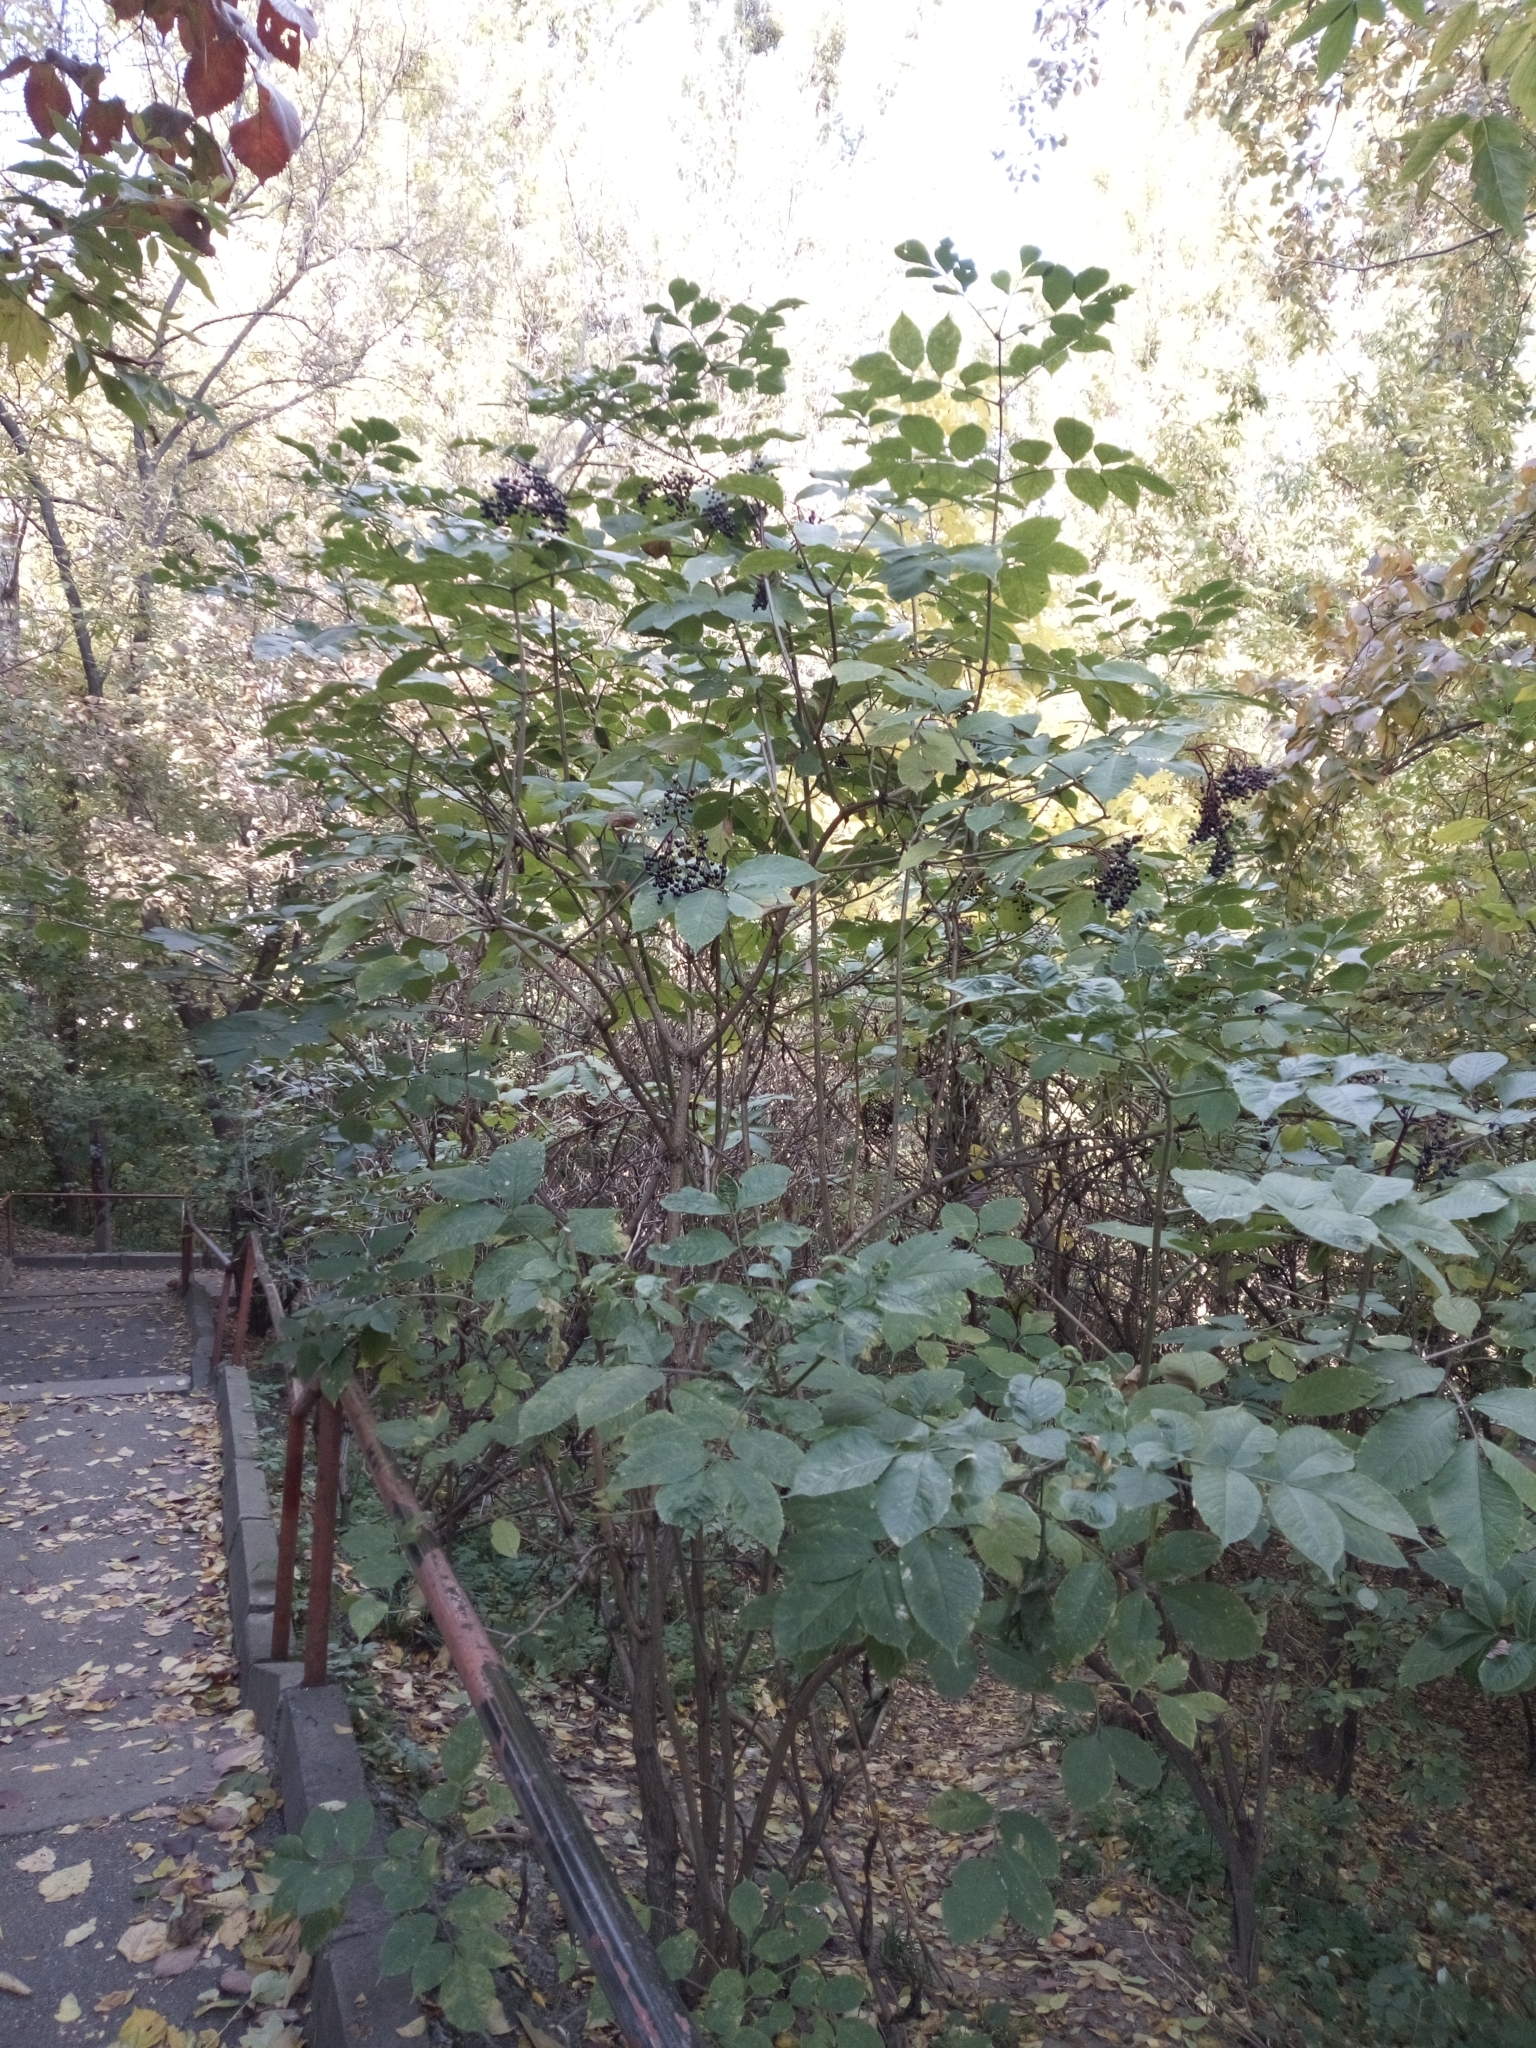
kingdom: Plantae
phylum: Tracheophyta
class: Magnoliopsida
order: Dipsacales
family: Viburnaceae
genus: Sambucus
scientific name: Sambucus nigra
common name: Elder
